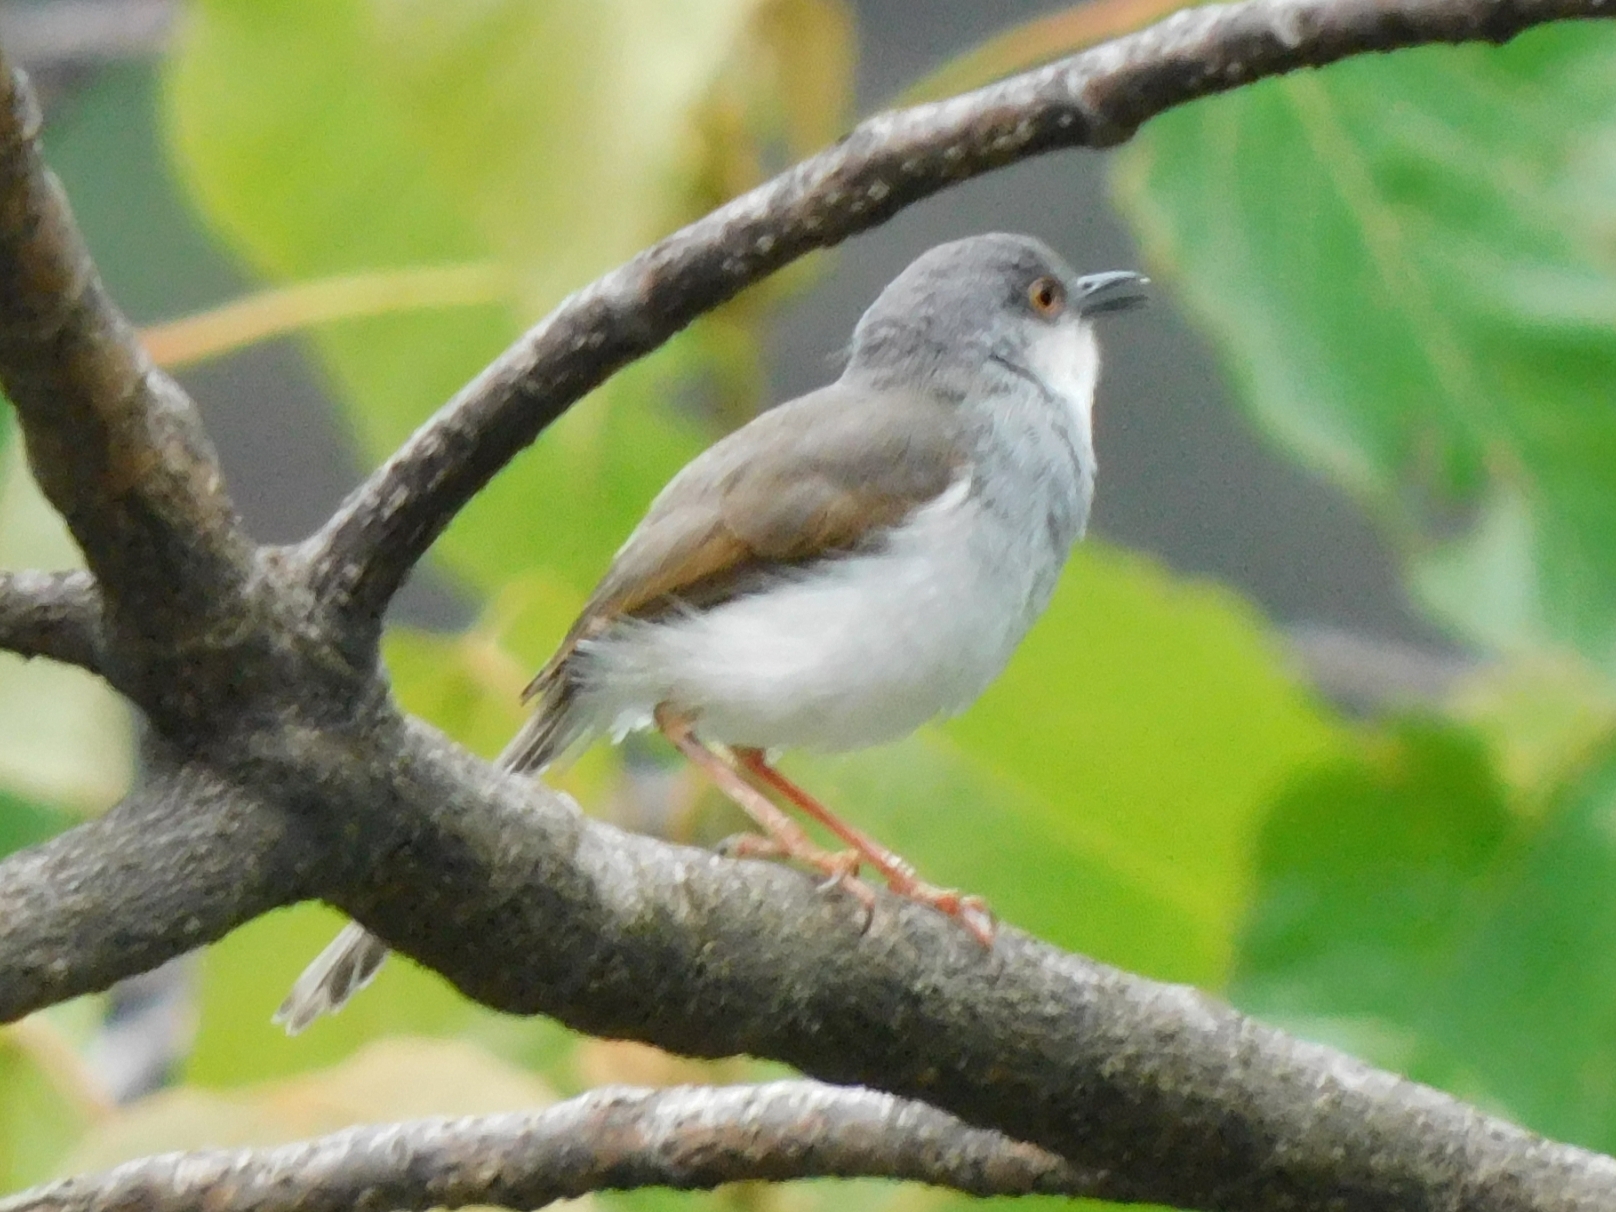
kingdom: Animalia
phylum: Chordata
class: Aves
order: Passeriformes
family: Cisticolidae
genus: Prinia
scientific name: Prinia hodgsonii
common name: Grey-breasted prinia
